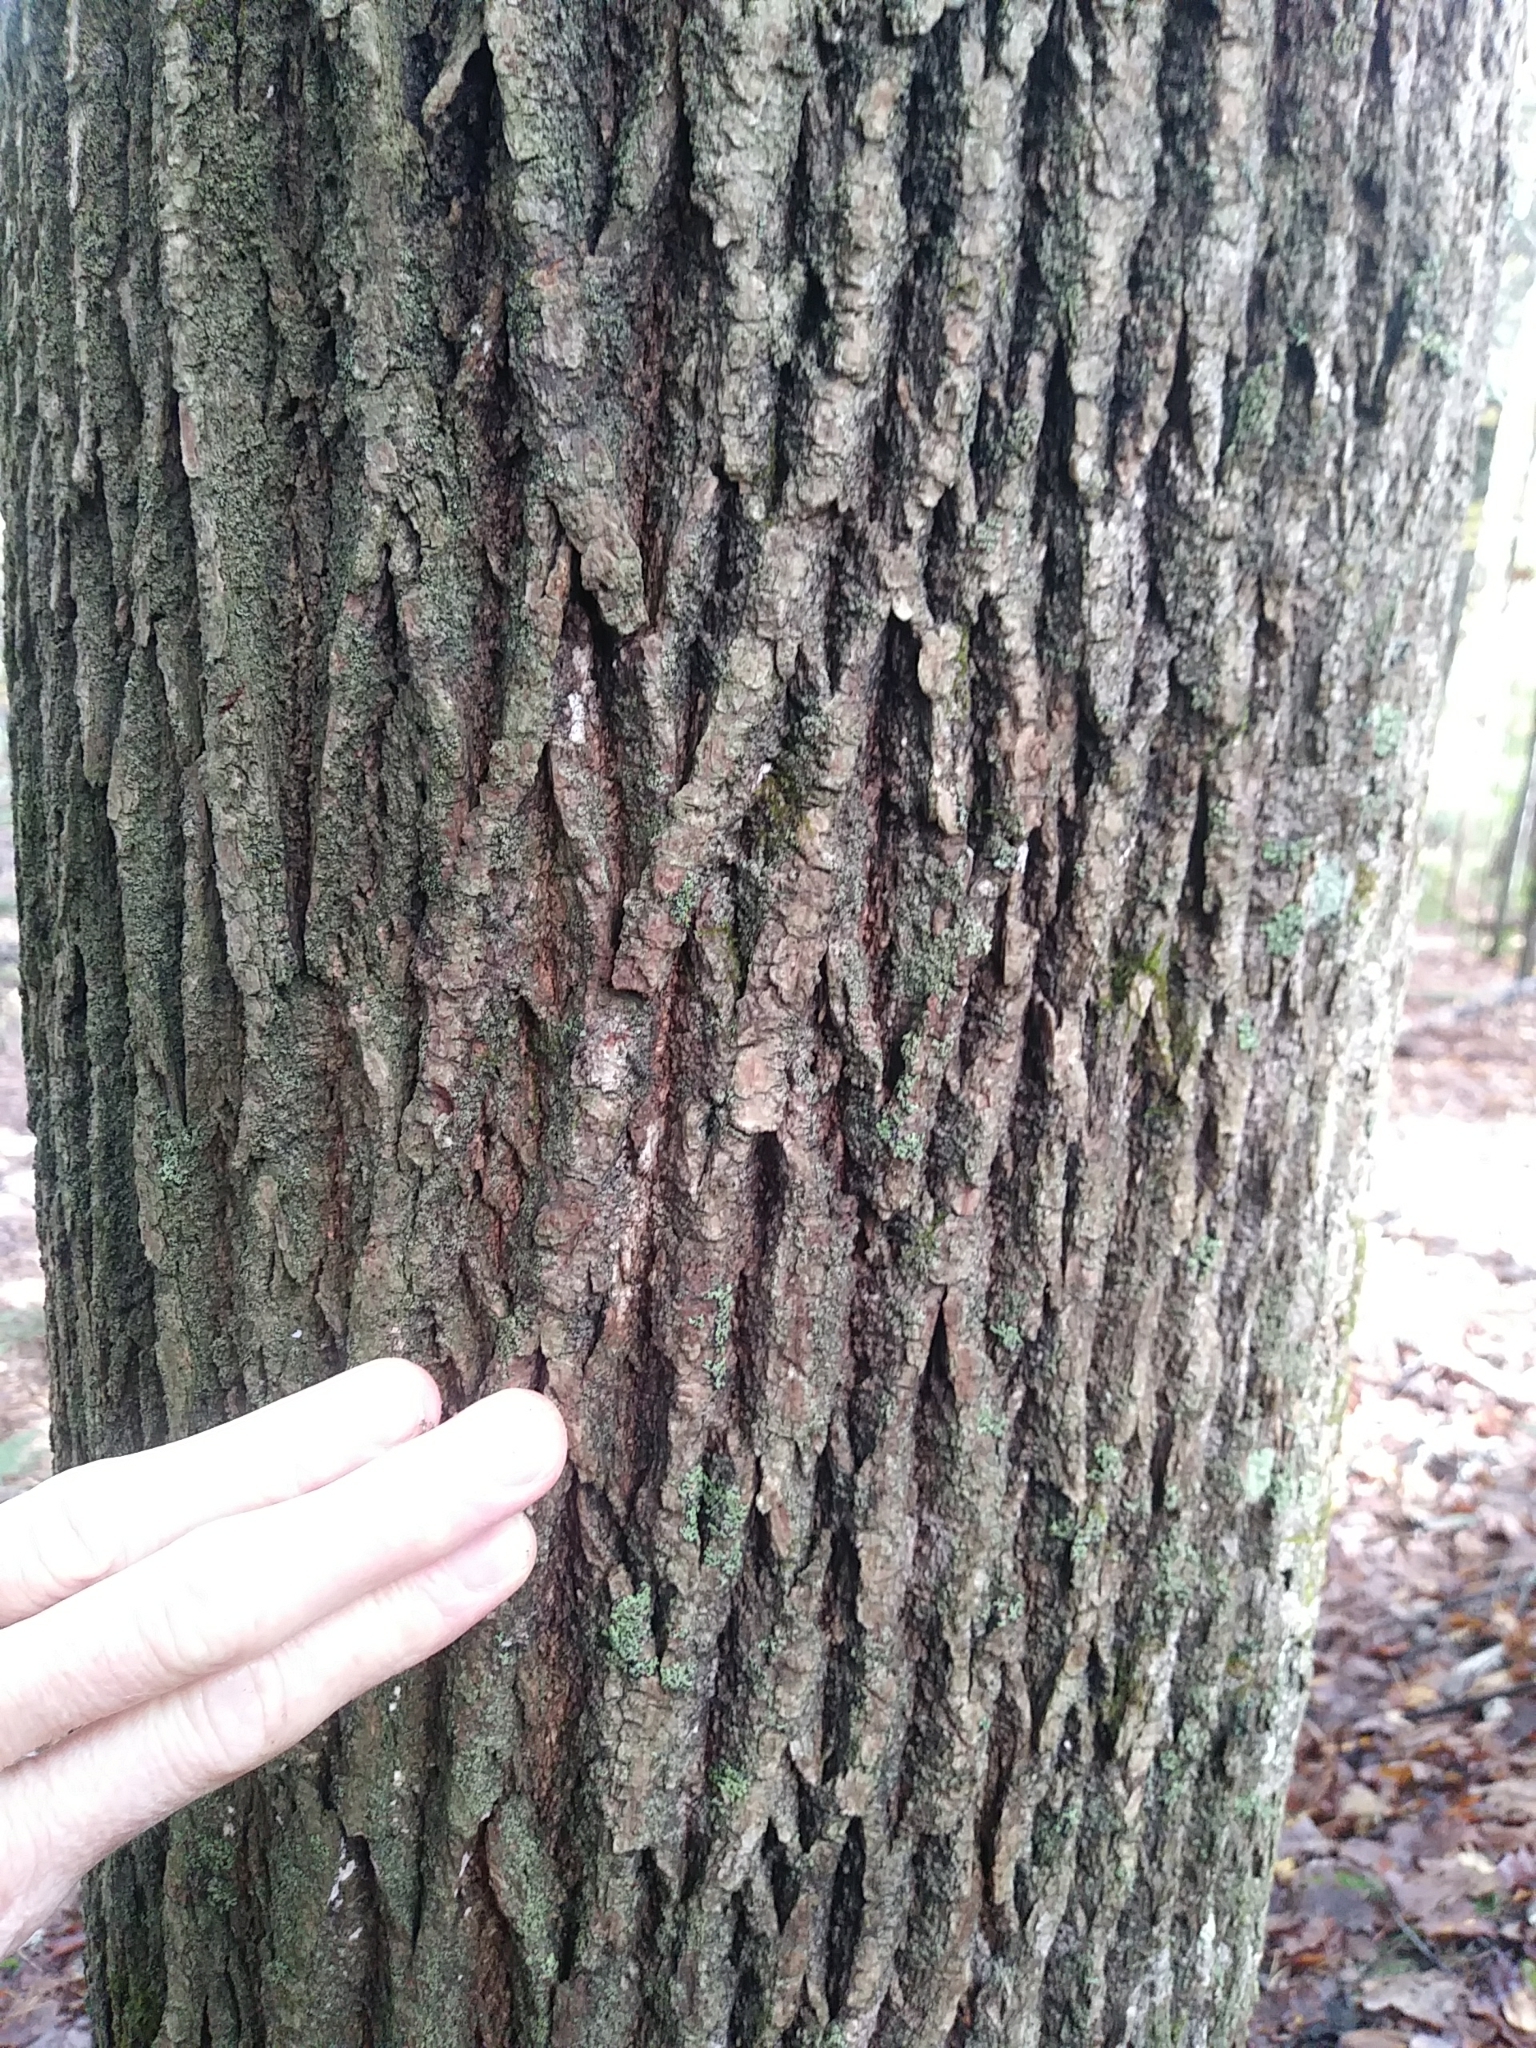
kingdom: Plantae
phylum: Tracheophyta
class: Magnoliopsida
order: Lamiales
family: Oleaceae
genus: Fraxinus
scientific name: Fraxinus americana
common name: White ash
